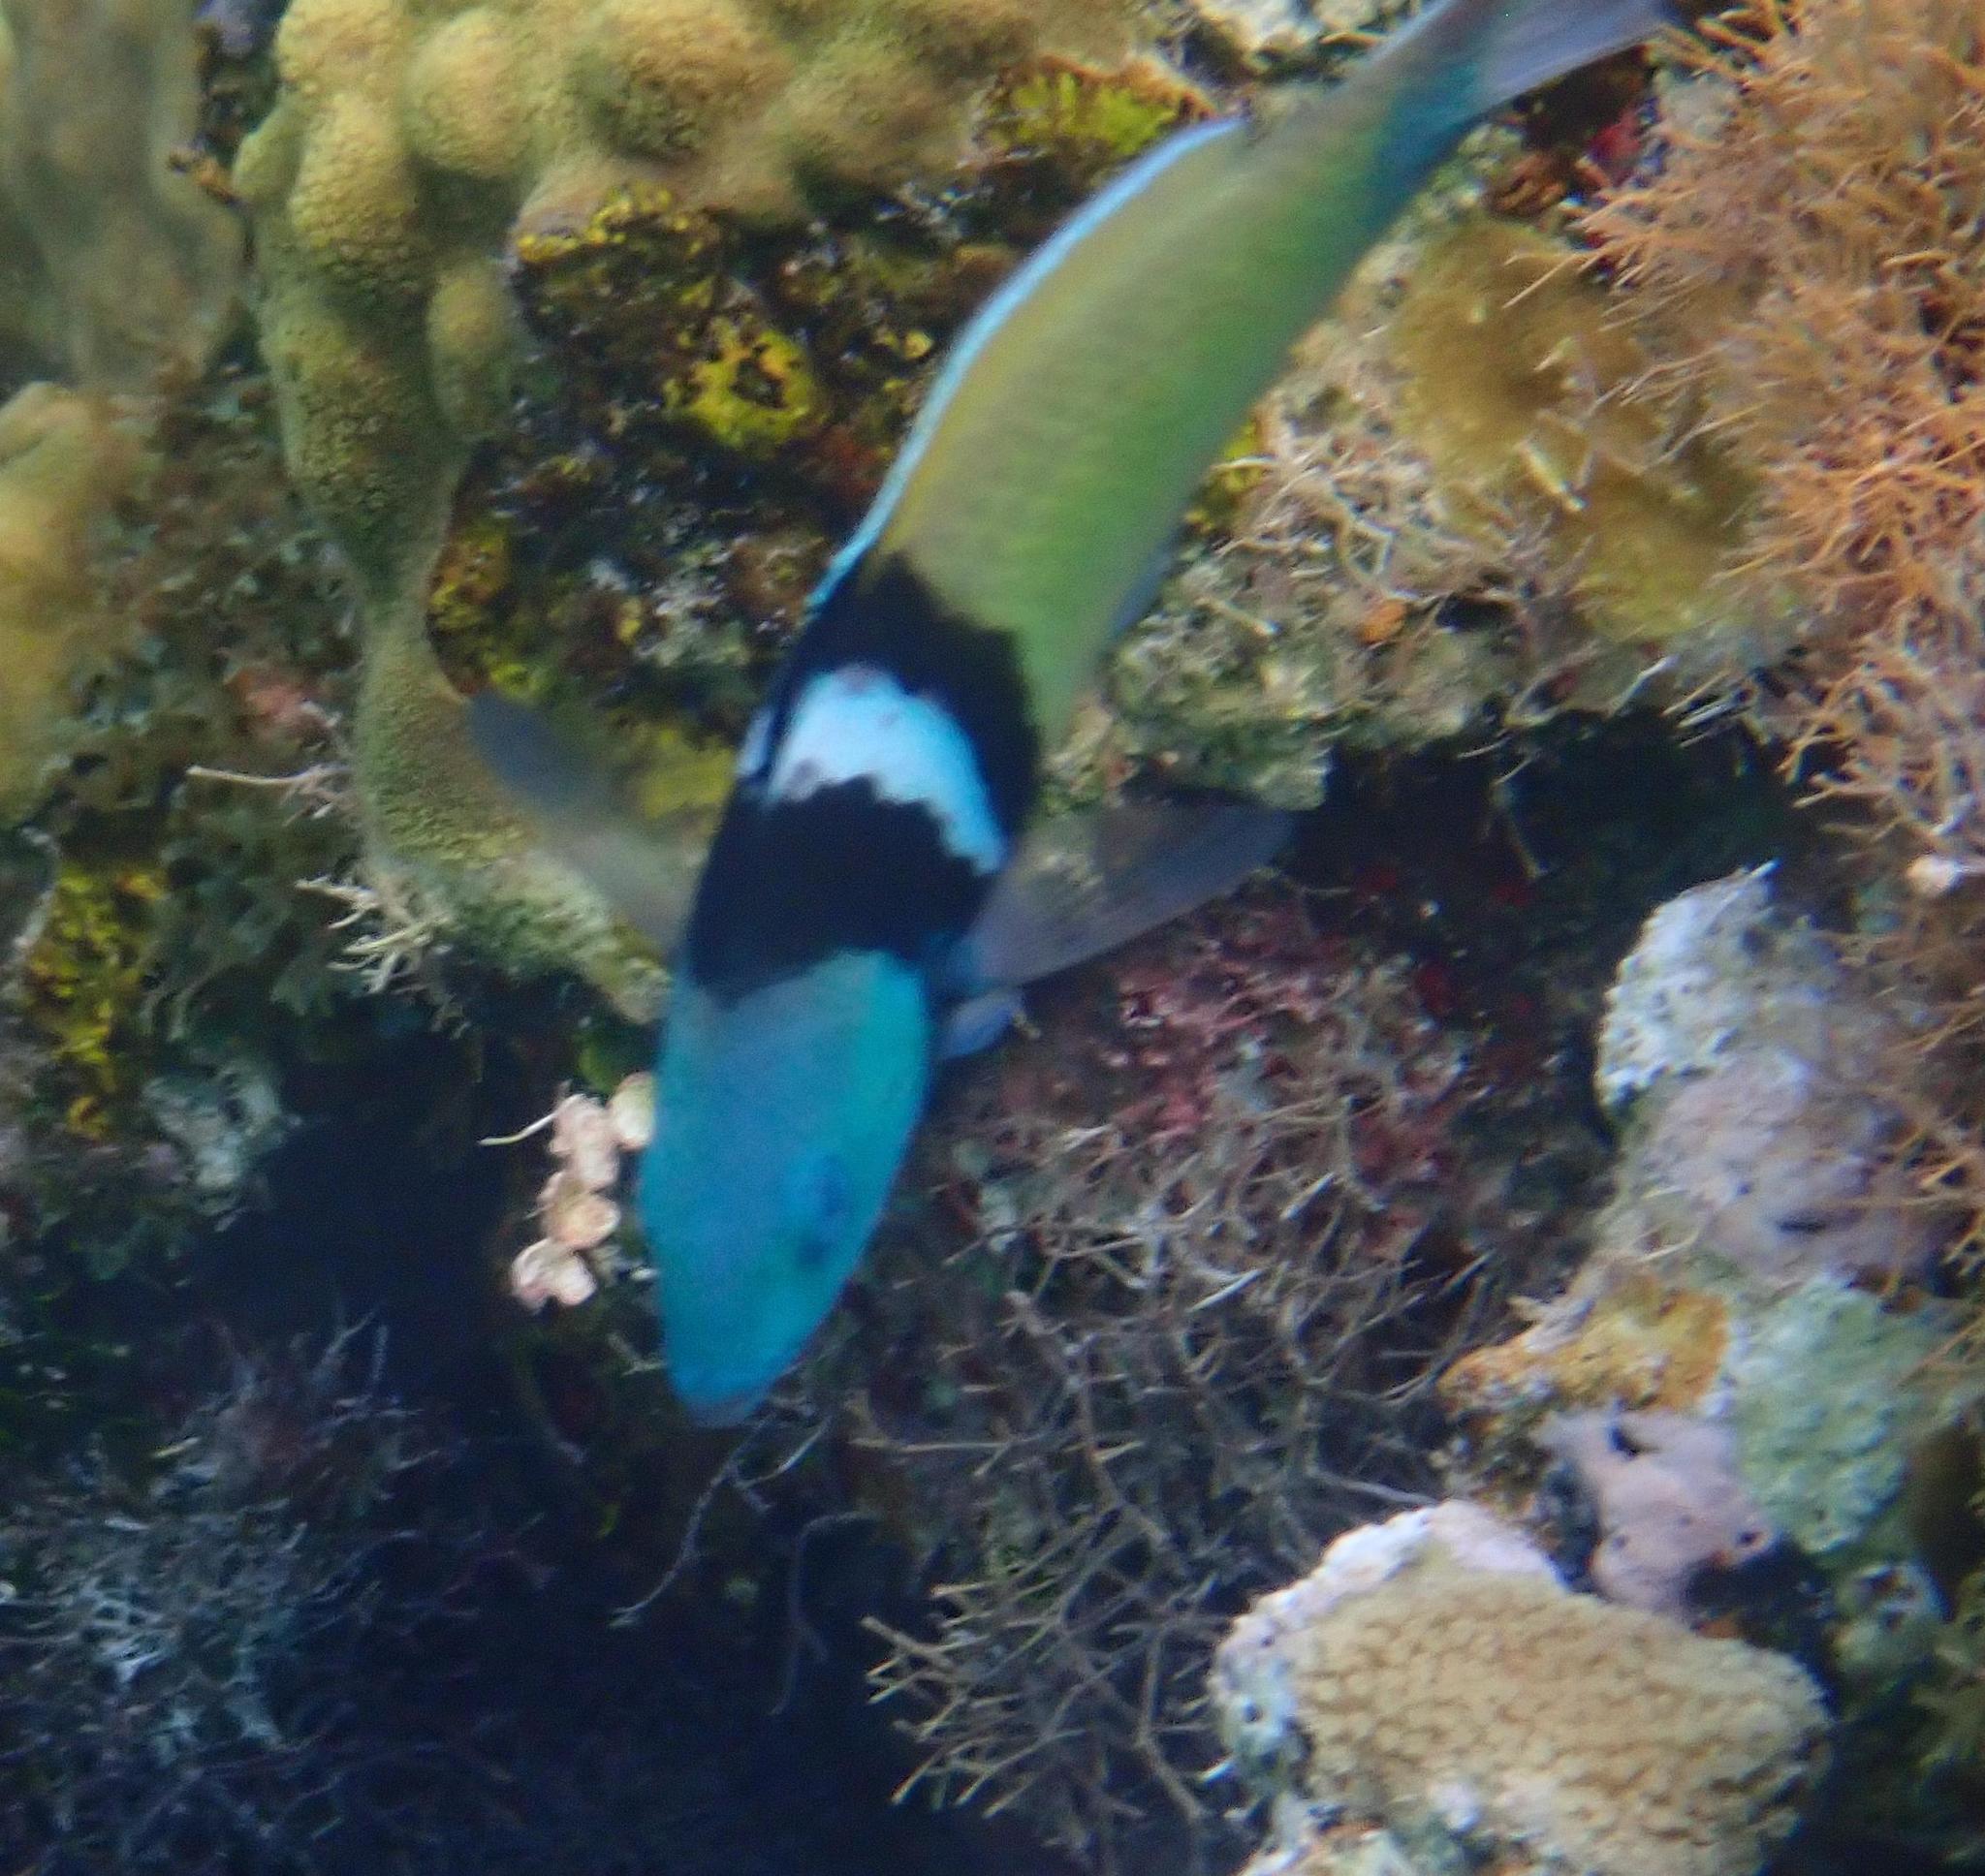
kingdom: Animalia
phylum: Chordata
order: Perciformes
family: Labridae
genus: Thalassoma
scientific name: Thalassoma bifasciatum
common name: Bluehead wrasse
